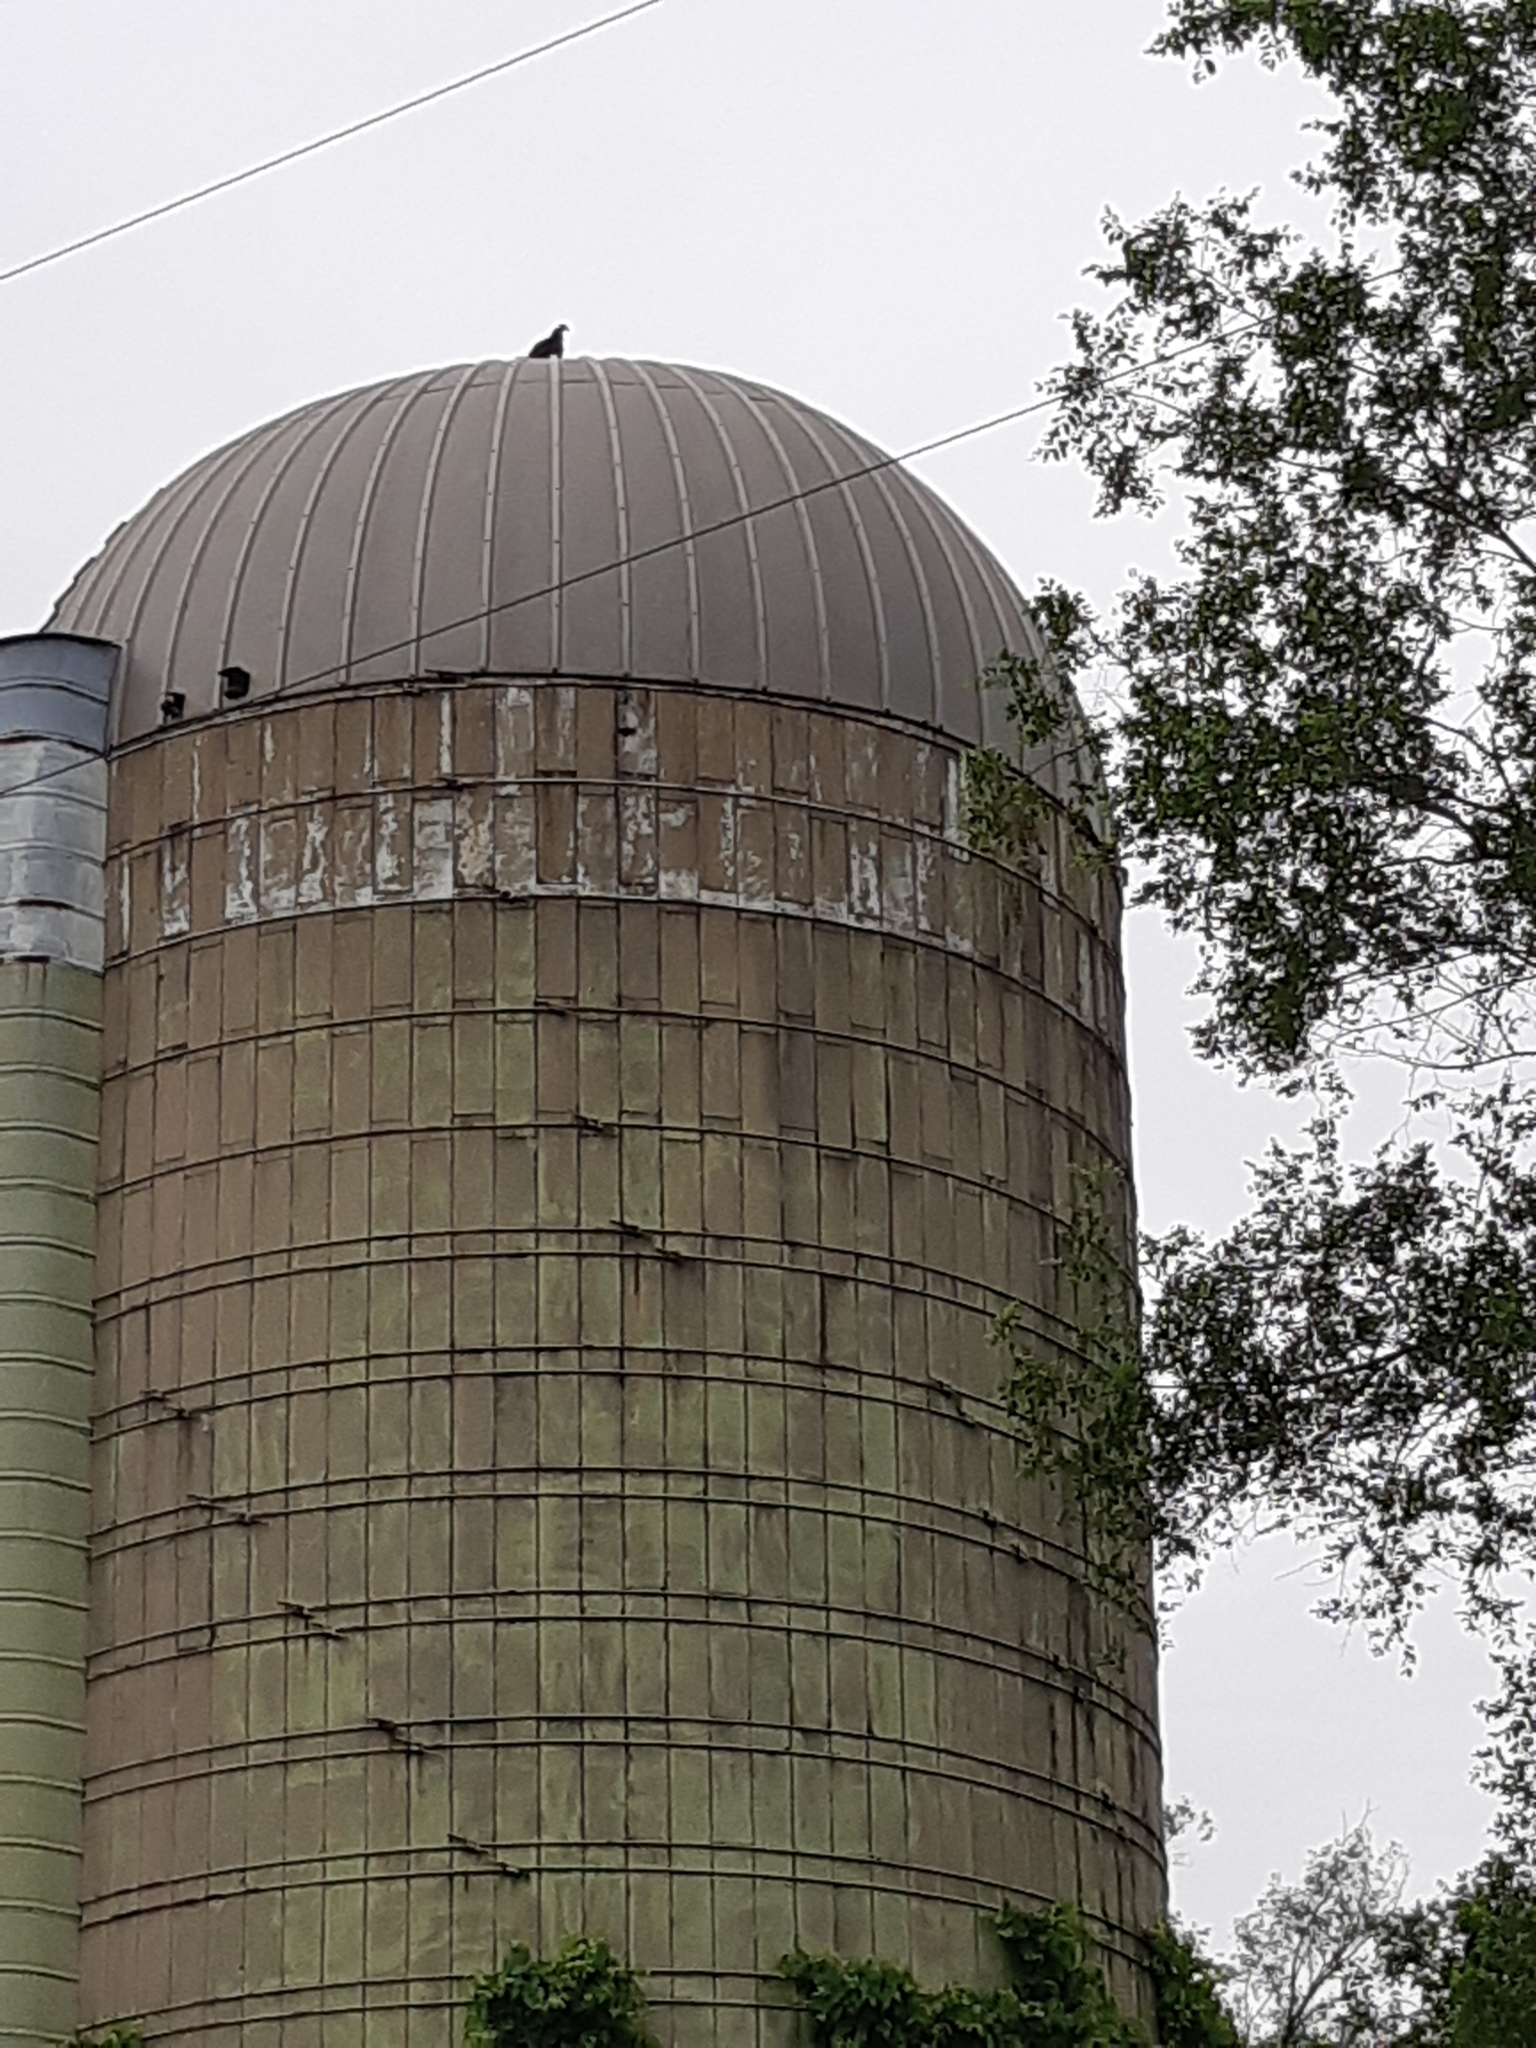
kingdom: Animalia
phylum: Chordata
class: Aves
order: Accipitriformes
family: Cathartidae
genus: Cathartes
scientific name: Cathartes aura
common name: Turkey vulture
